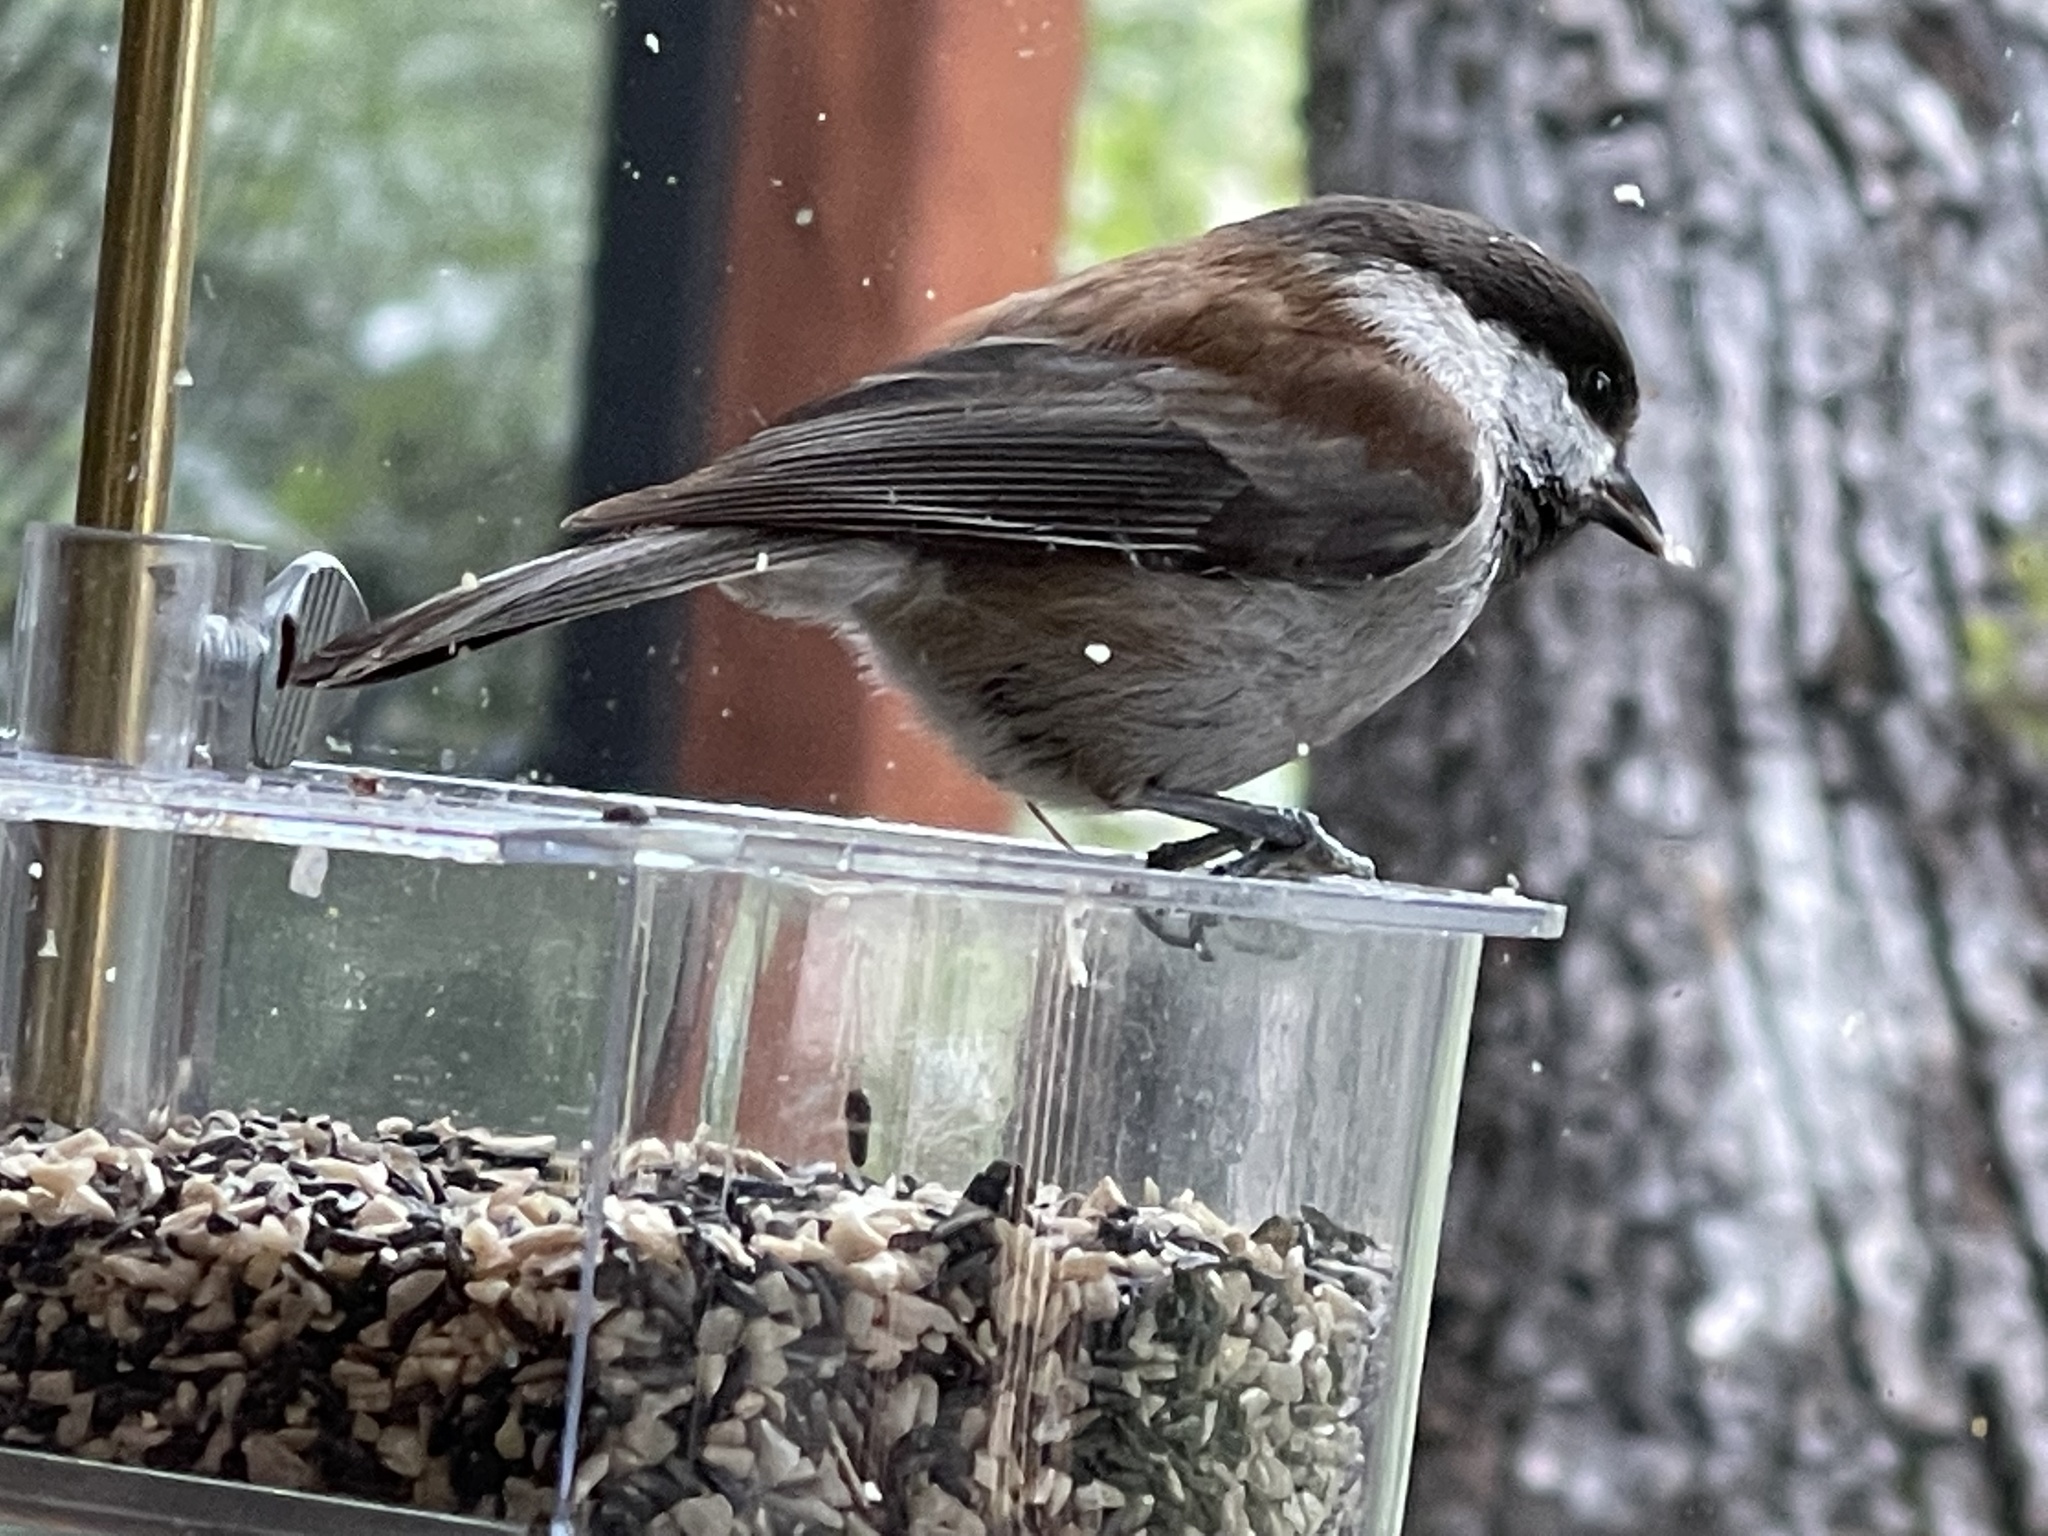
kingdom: Animalia
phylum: Chordata
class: Aves
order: Passeriformes
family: Paridae
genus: Poecile
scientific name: Poecile rufescens
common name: Chestnut-backed chickadee
